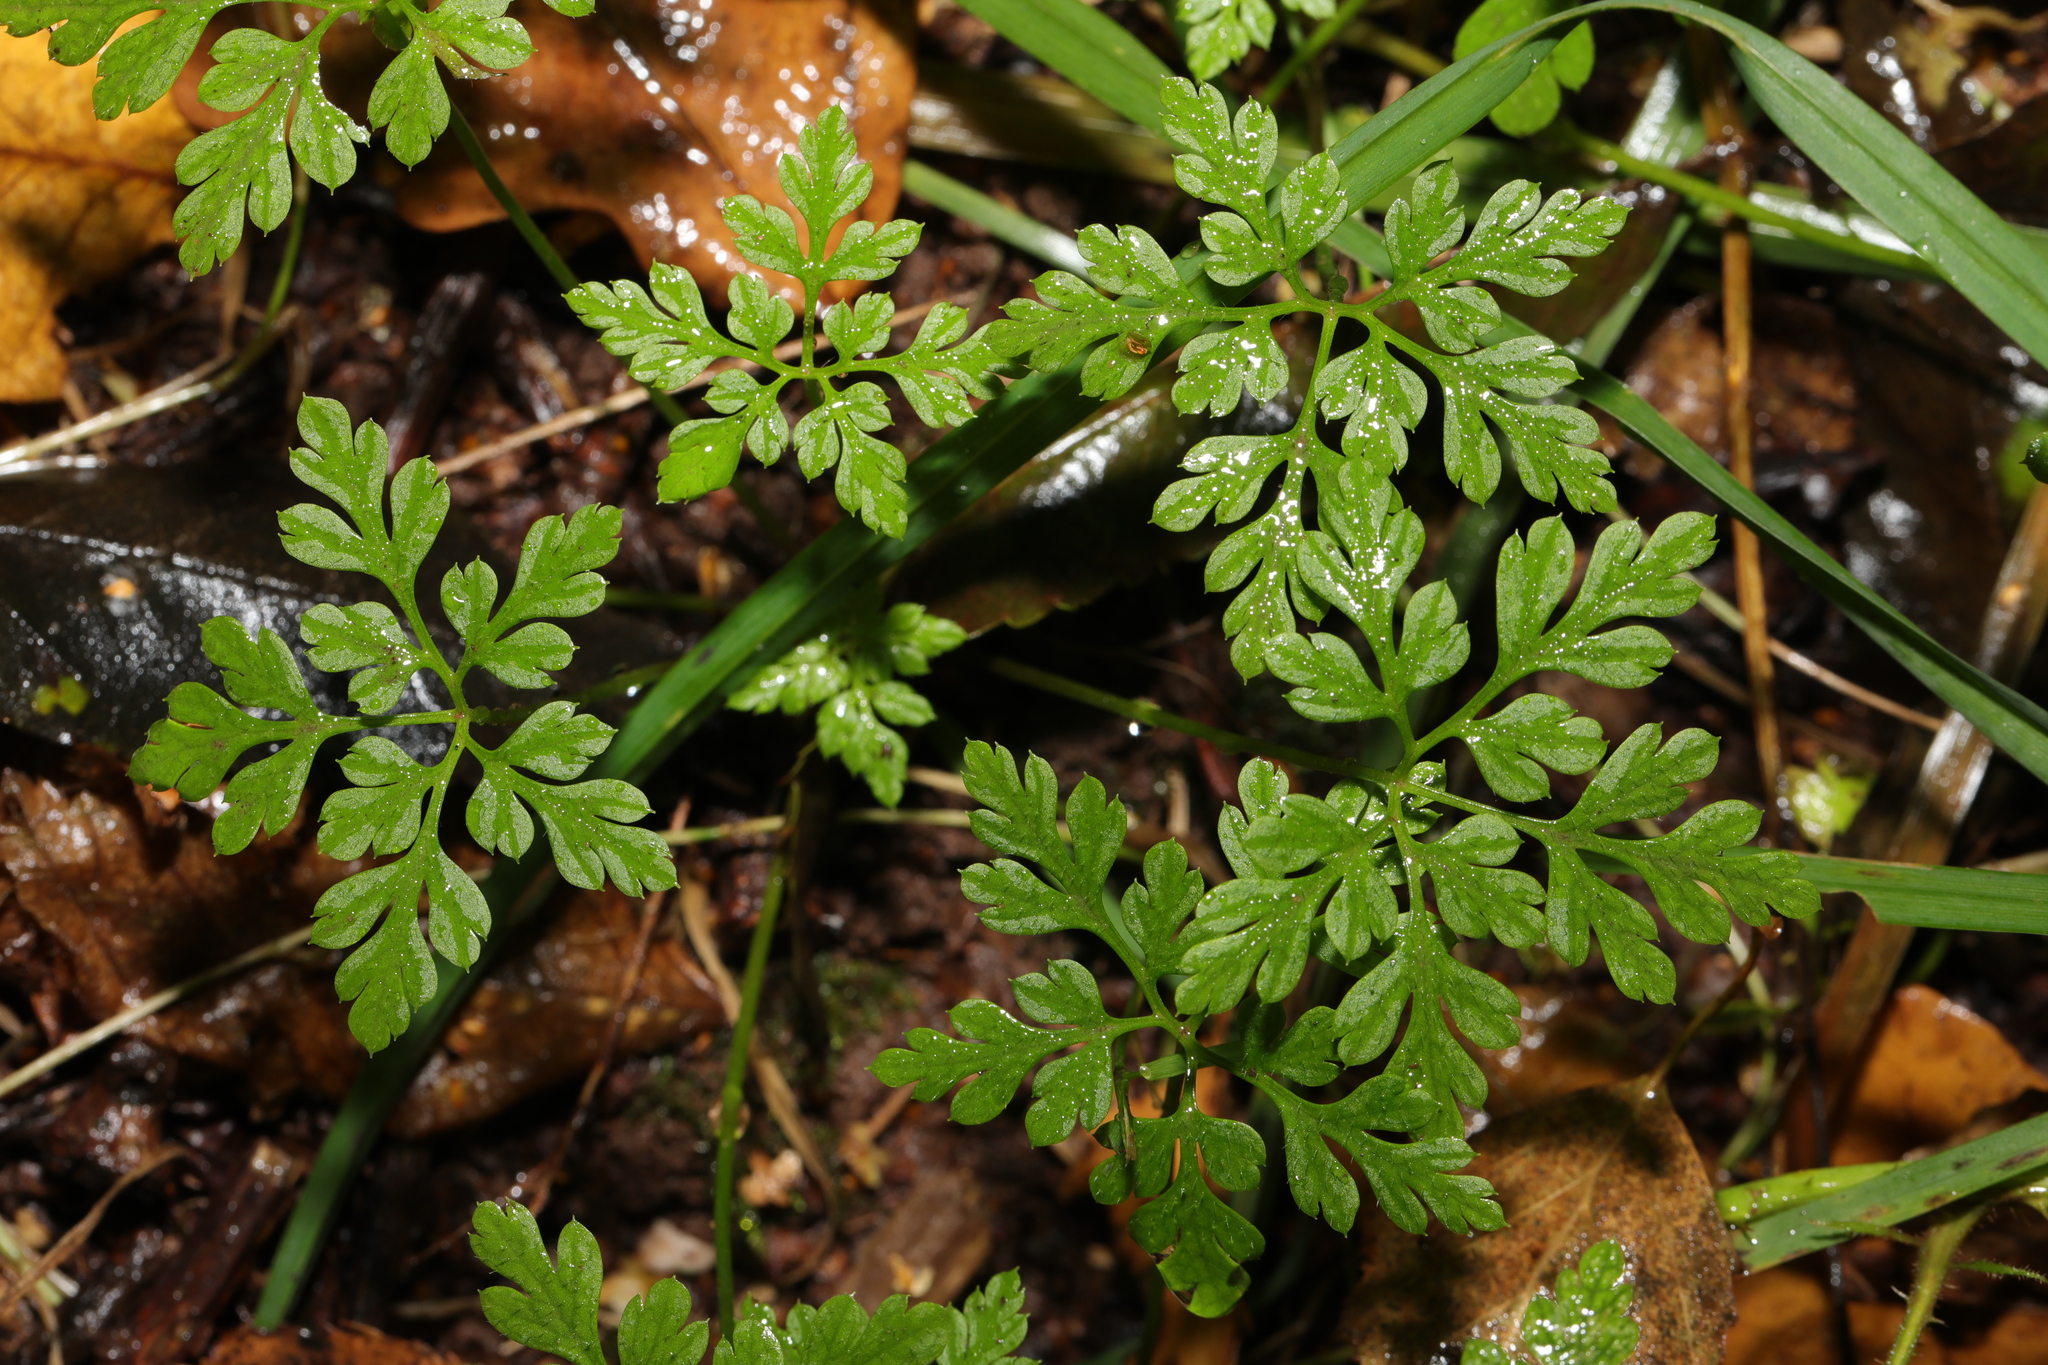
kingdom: Plantae
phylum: Tracheophyta
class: Magnoliopsida
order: Geraniales
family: Geraniaceae
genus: Geranium
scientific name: Geranium robertianum
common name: Herb-robert
